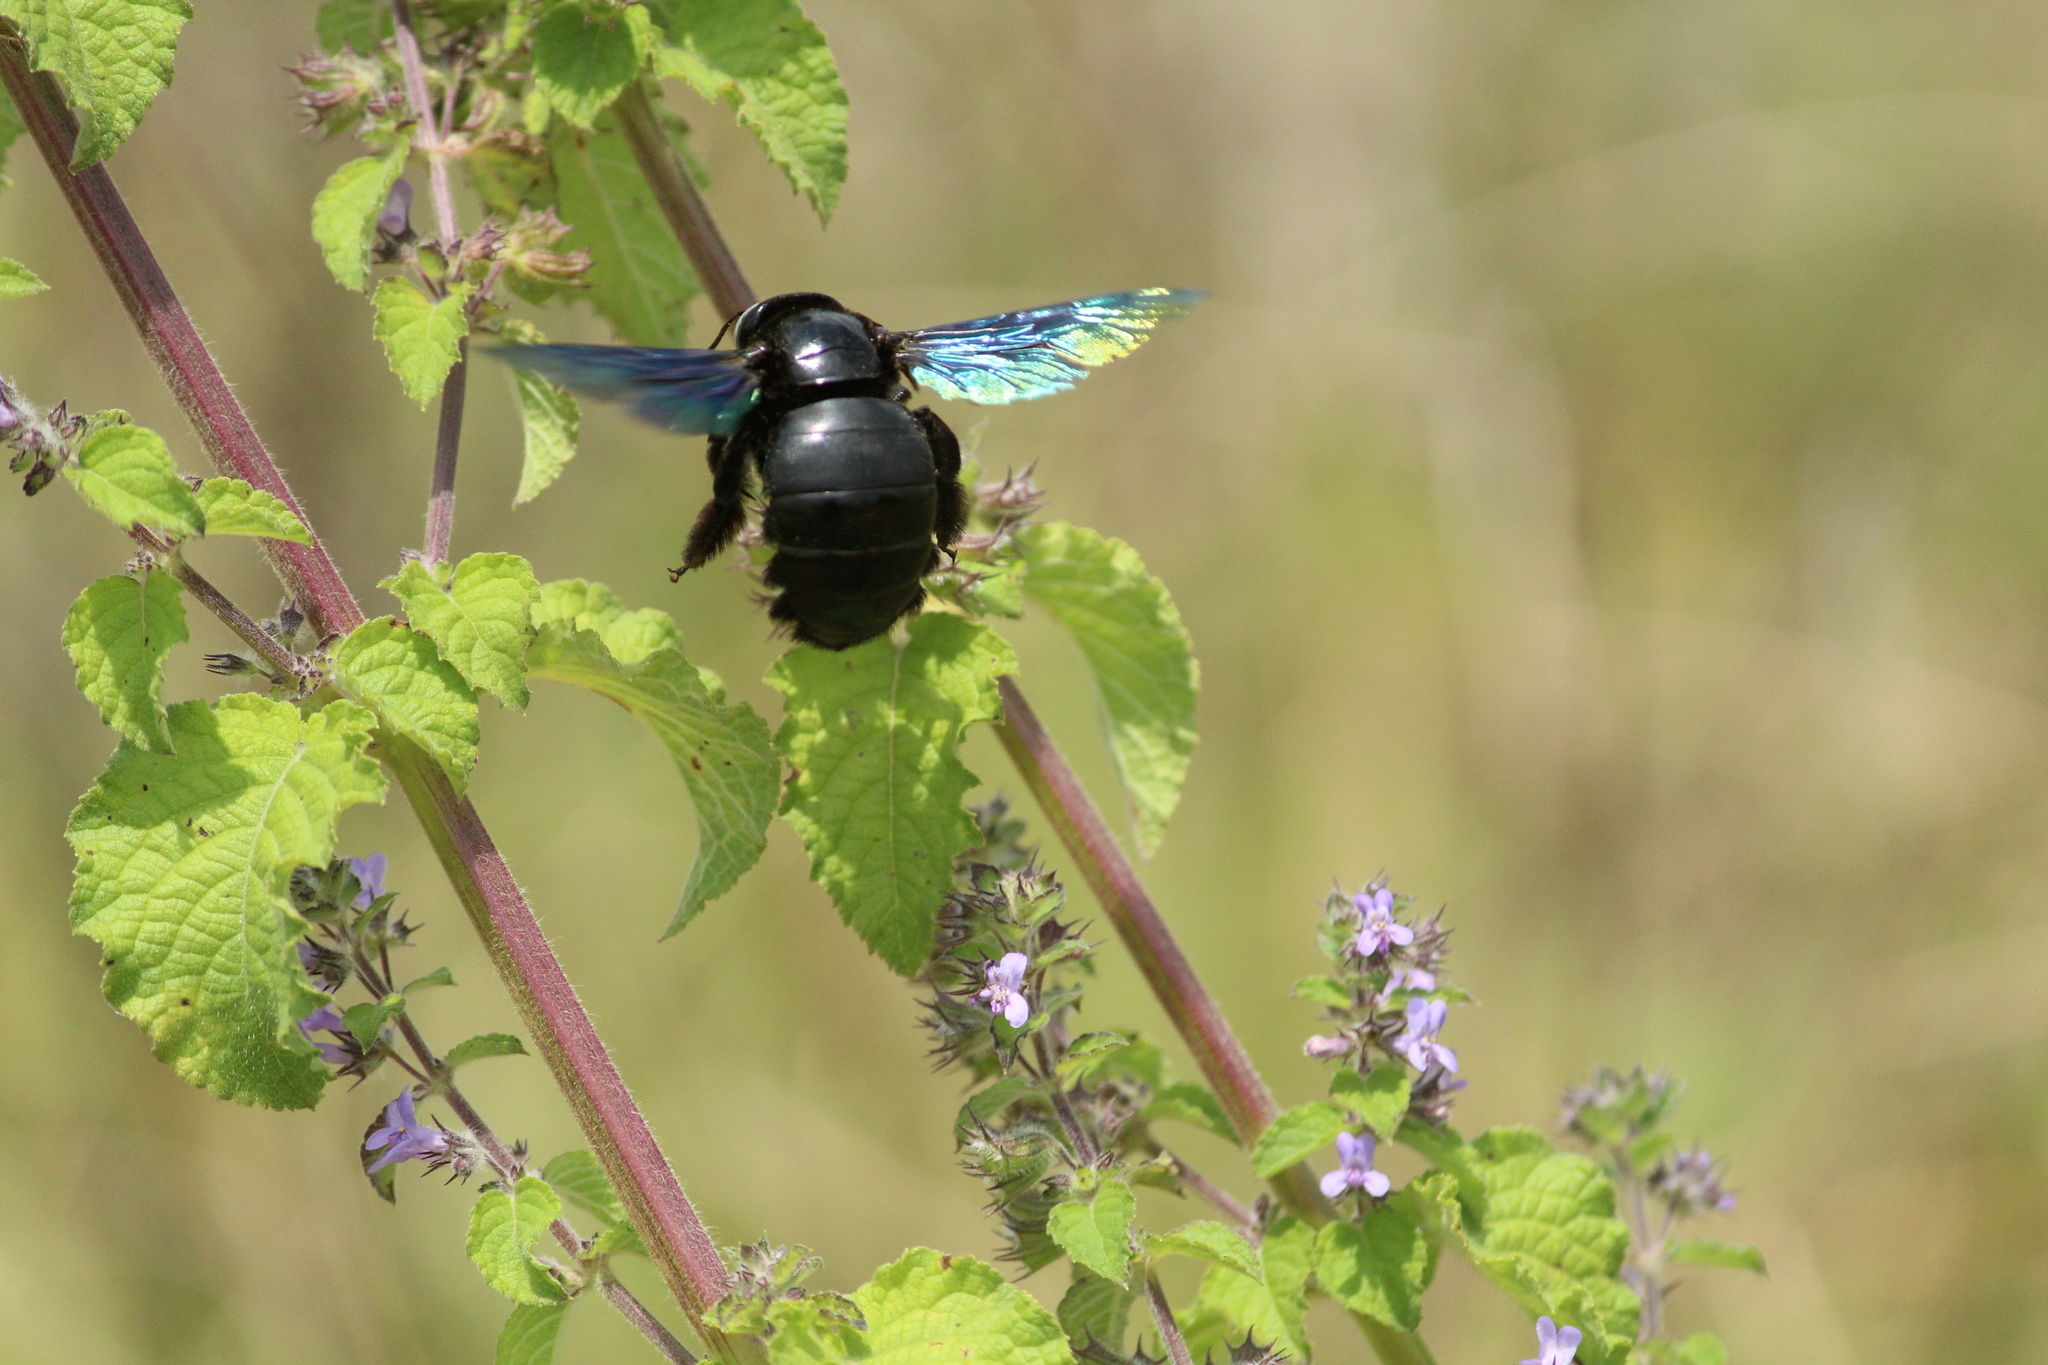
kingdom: Animalia
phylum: Arthropoda
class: Insecta
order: Hymenoptera
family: Apidae
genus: Xylocopa
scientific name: Xylocopa tenuiscapa
